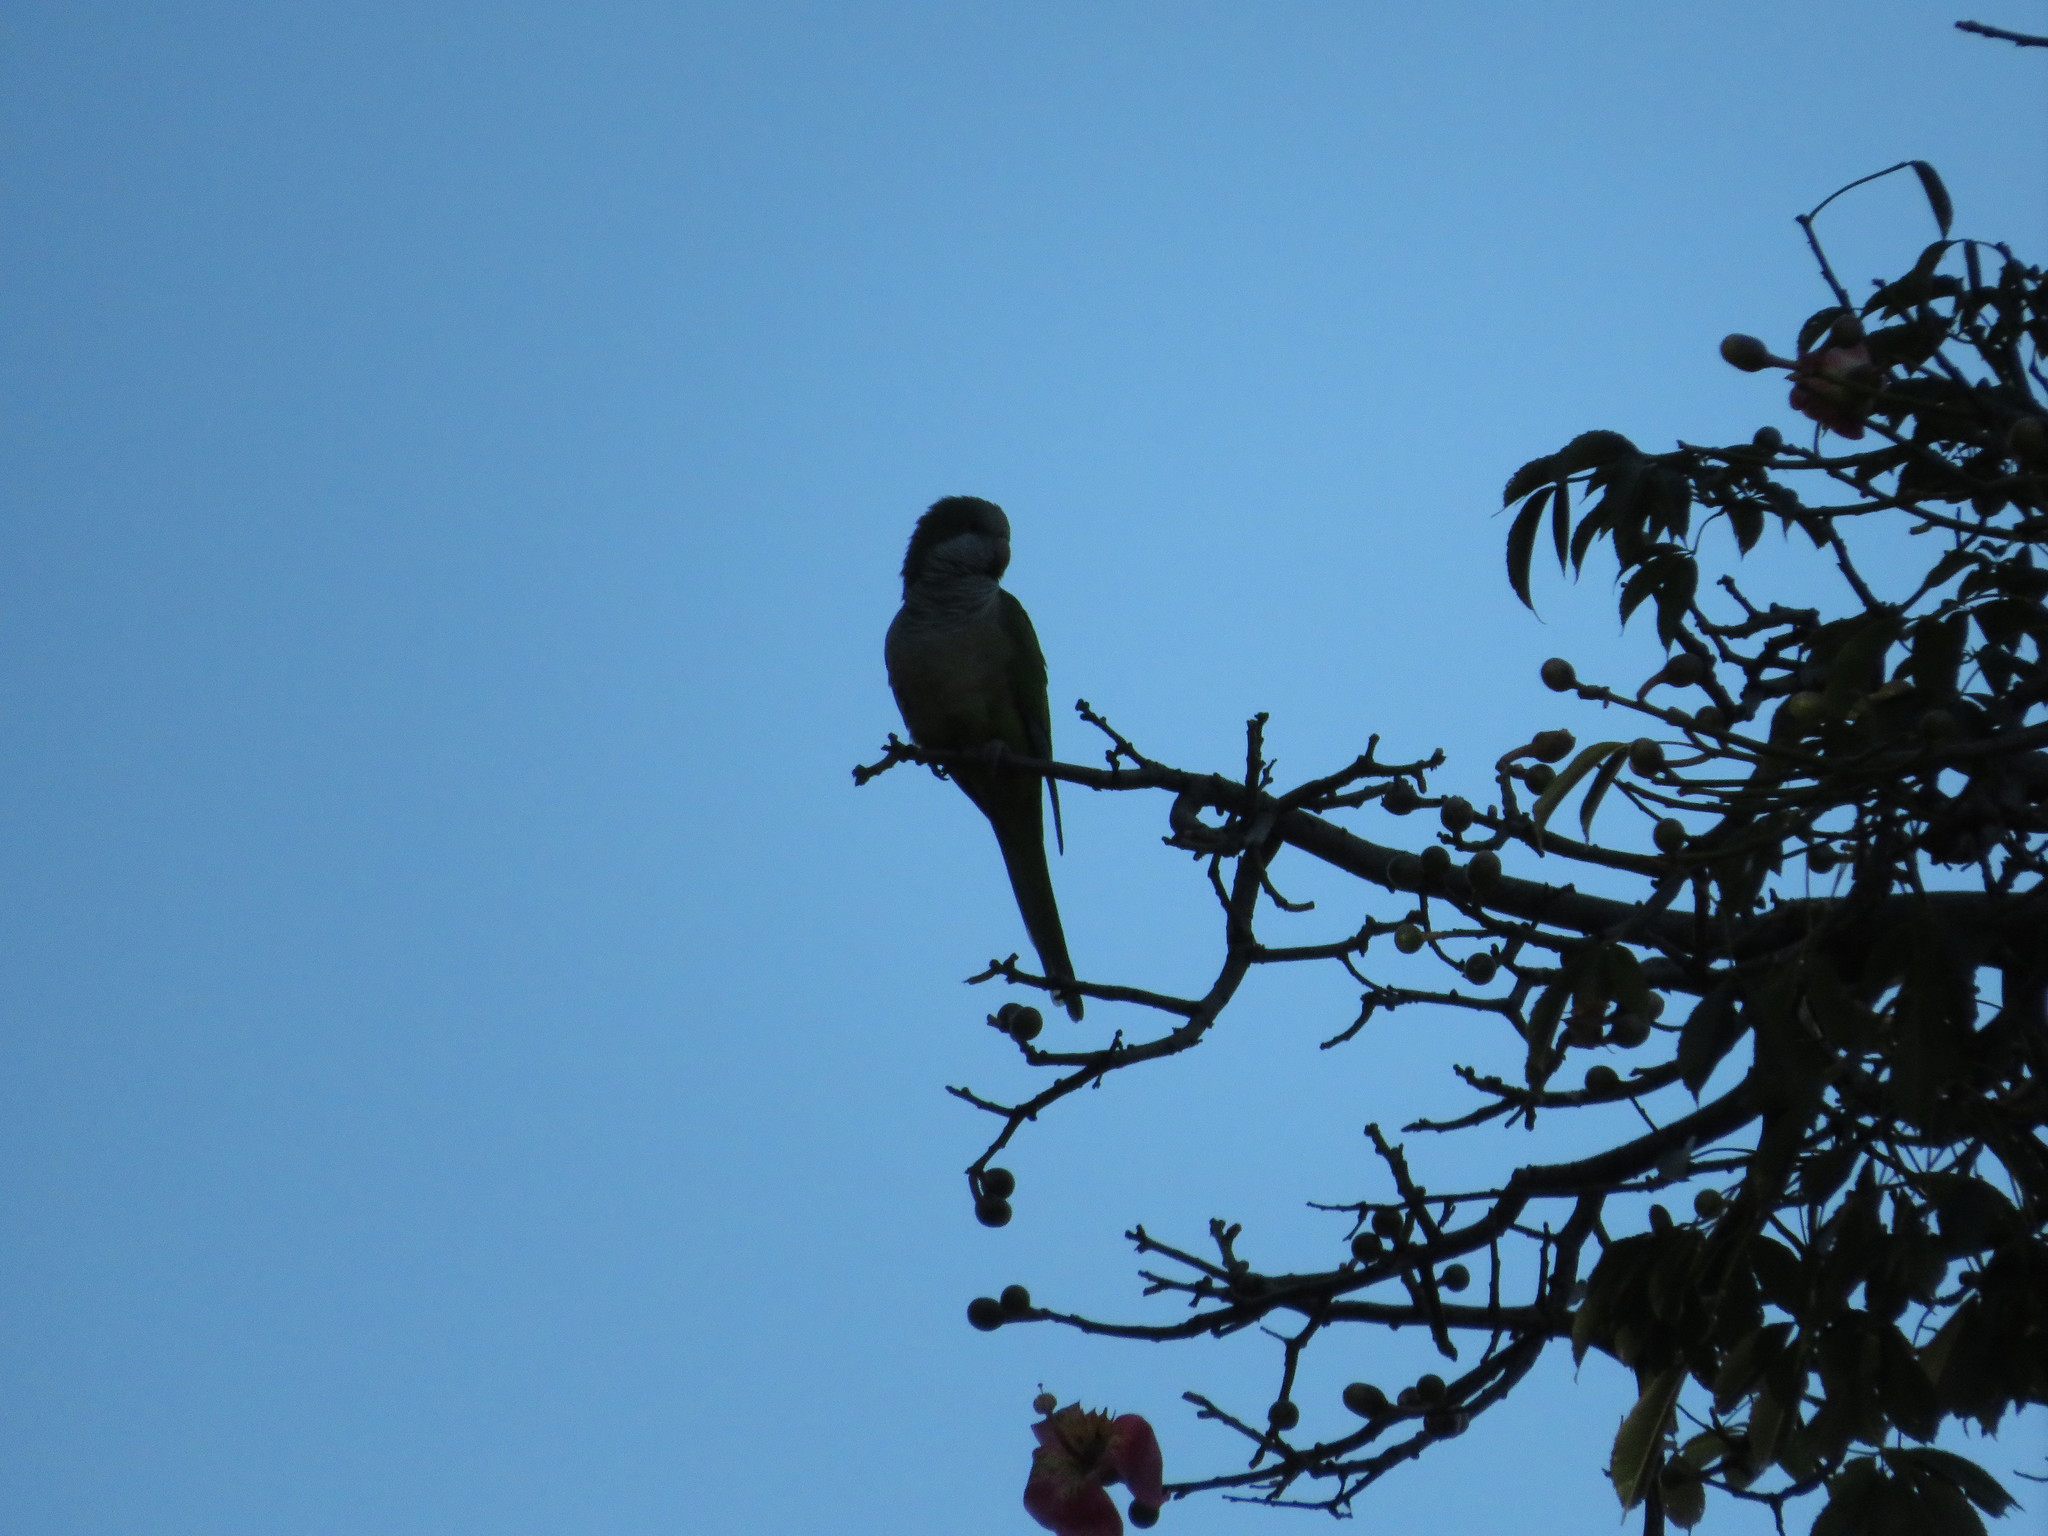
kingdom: Animalia
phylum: Chordata
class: Aves
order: Psittaciformes
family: Psittacidae
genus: Myiopsitta
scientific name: Myiopsitta monachus
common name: Monk parakeet
